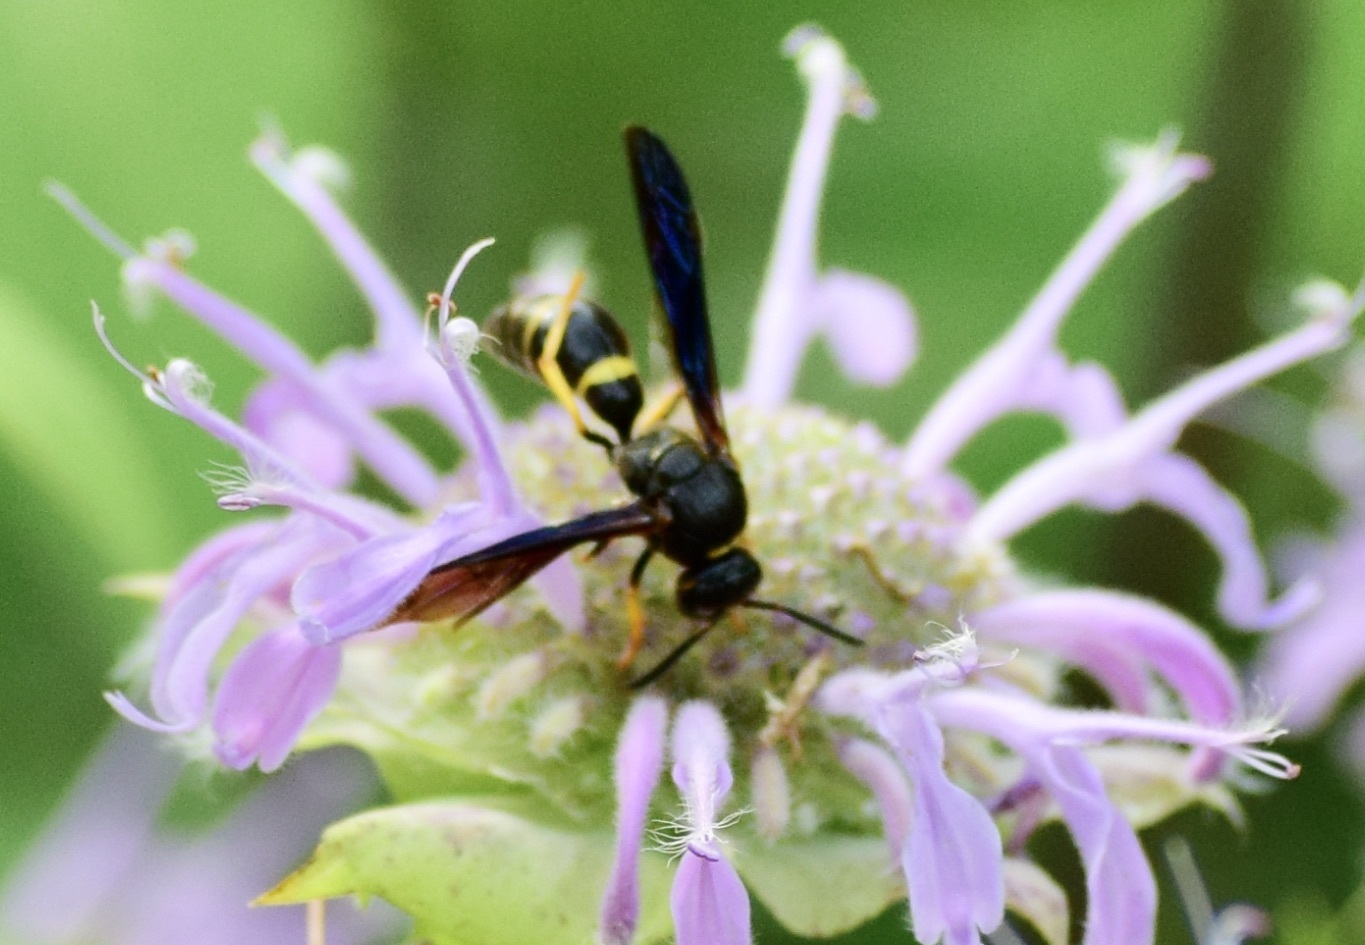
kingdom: Animalia
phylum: Arthropoda
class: Insecta
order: Hymenoptera
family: Eumenidae
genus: Parazumia
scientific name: Parazumia symmorpha
